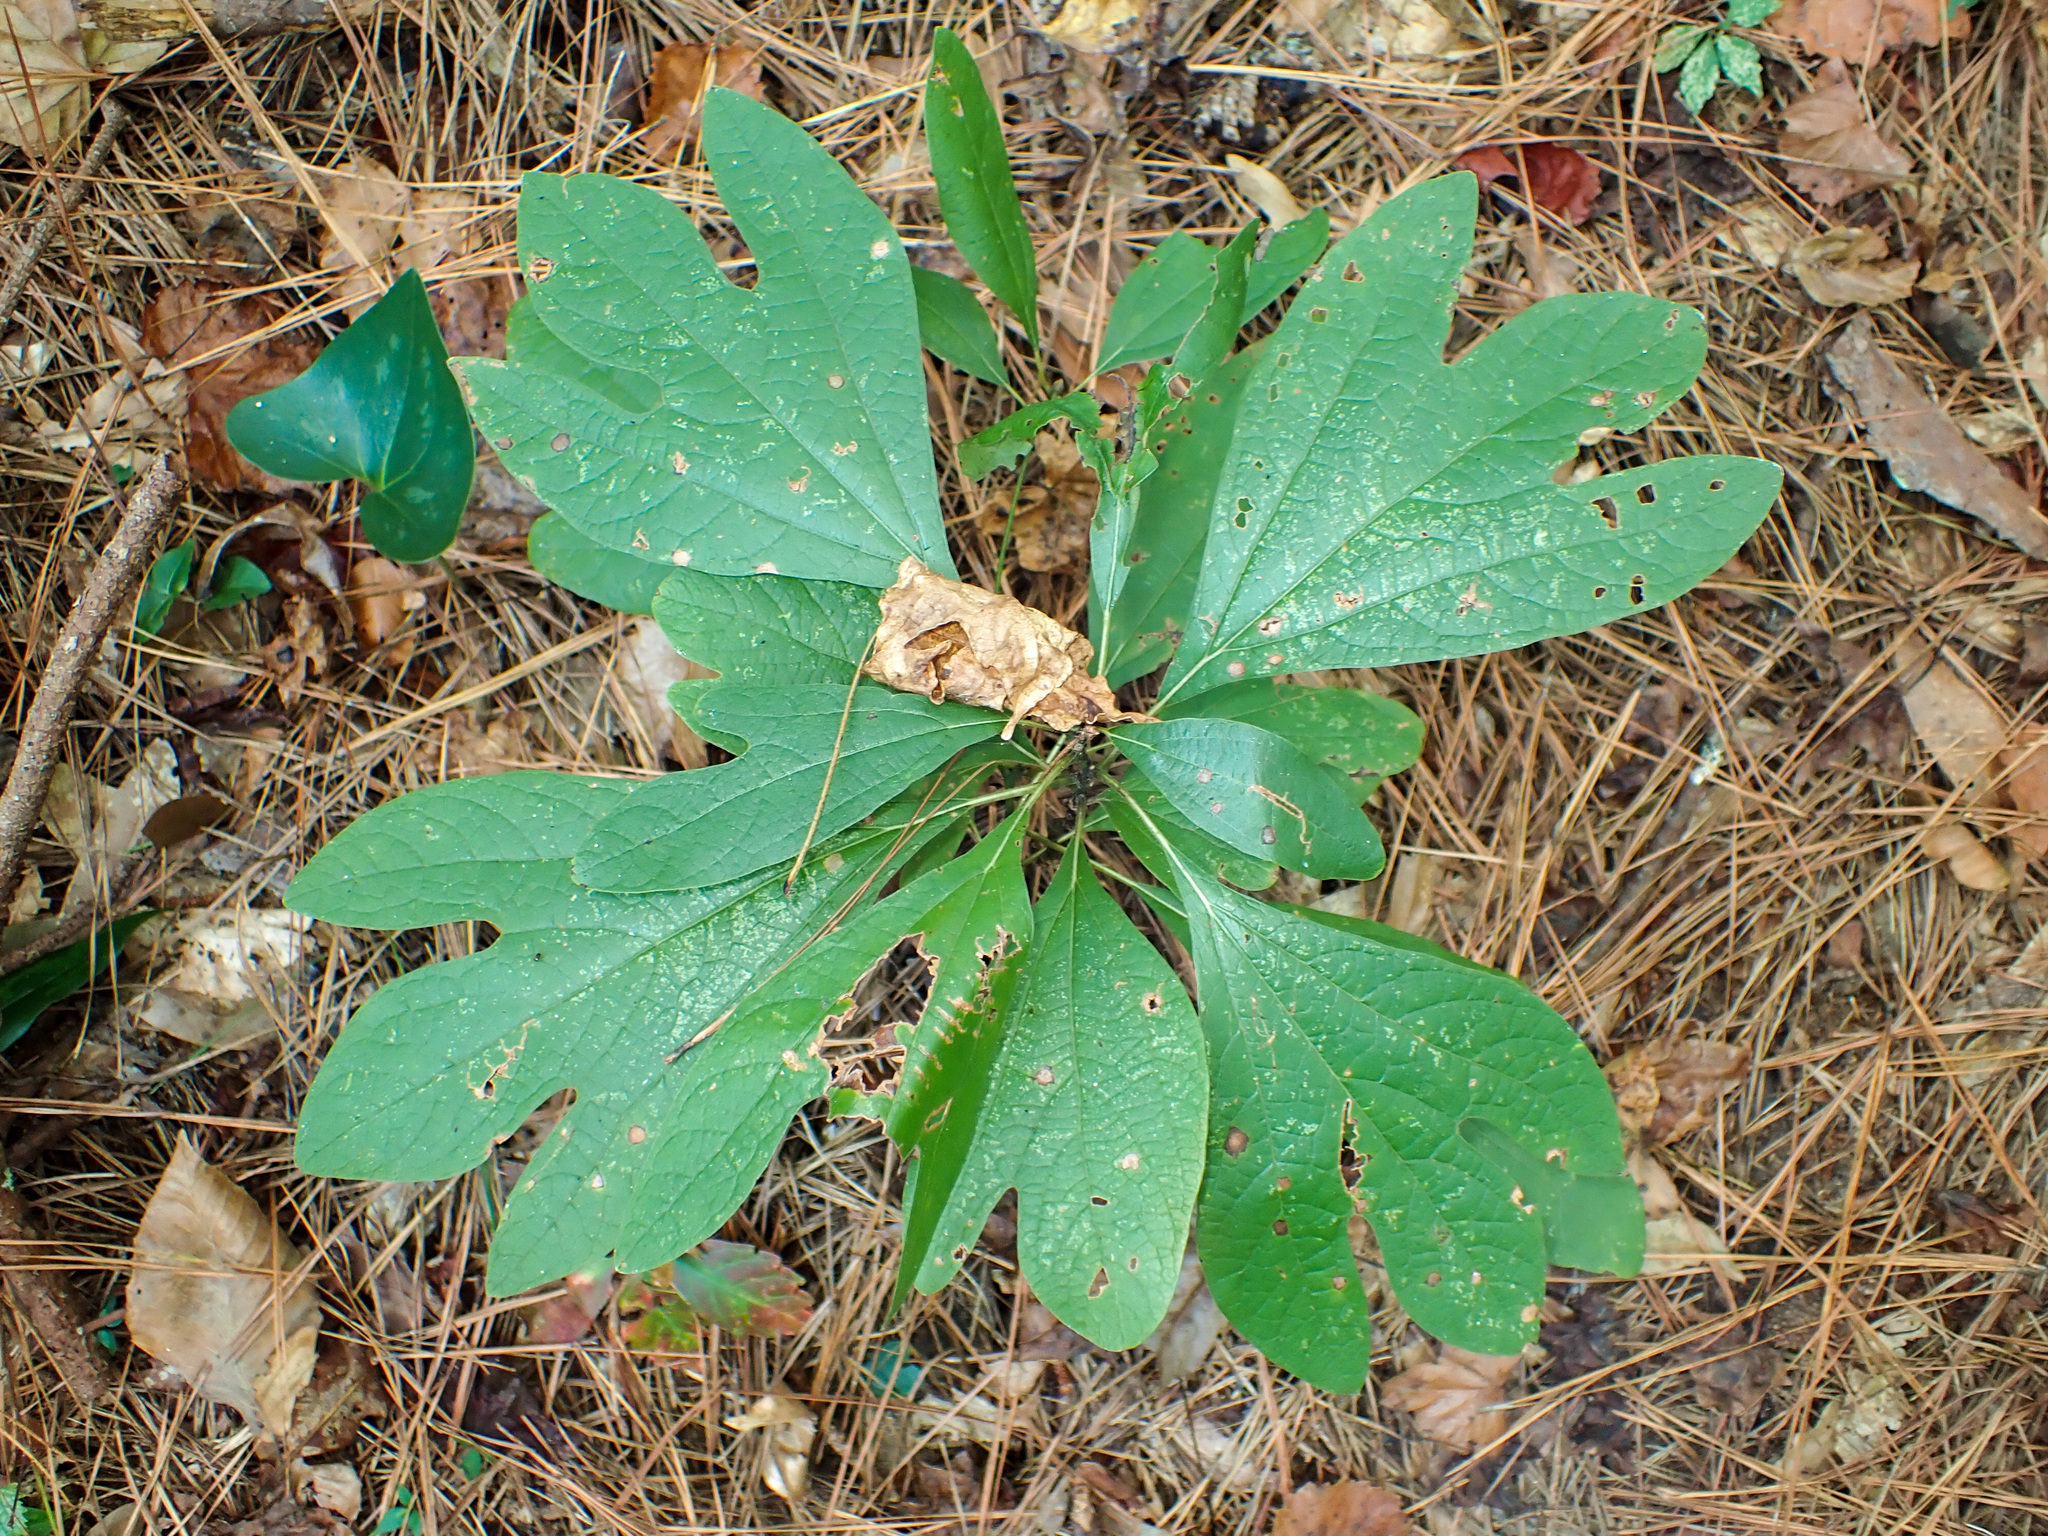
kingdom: Plantae
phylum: Tracheophyta
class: Magnoliopsida
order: Laurales
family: Lauraceae
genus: Sassafras
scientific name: Sassafras albidum
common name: Sassafras
